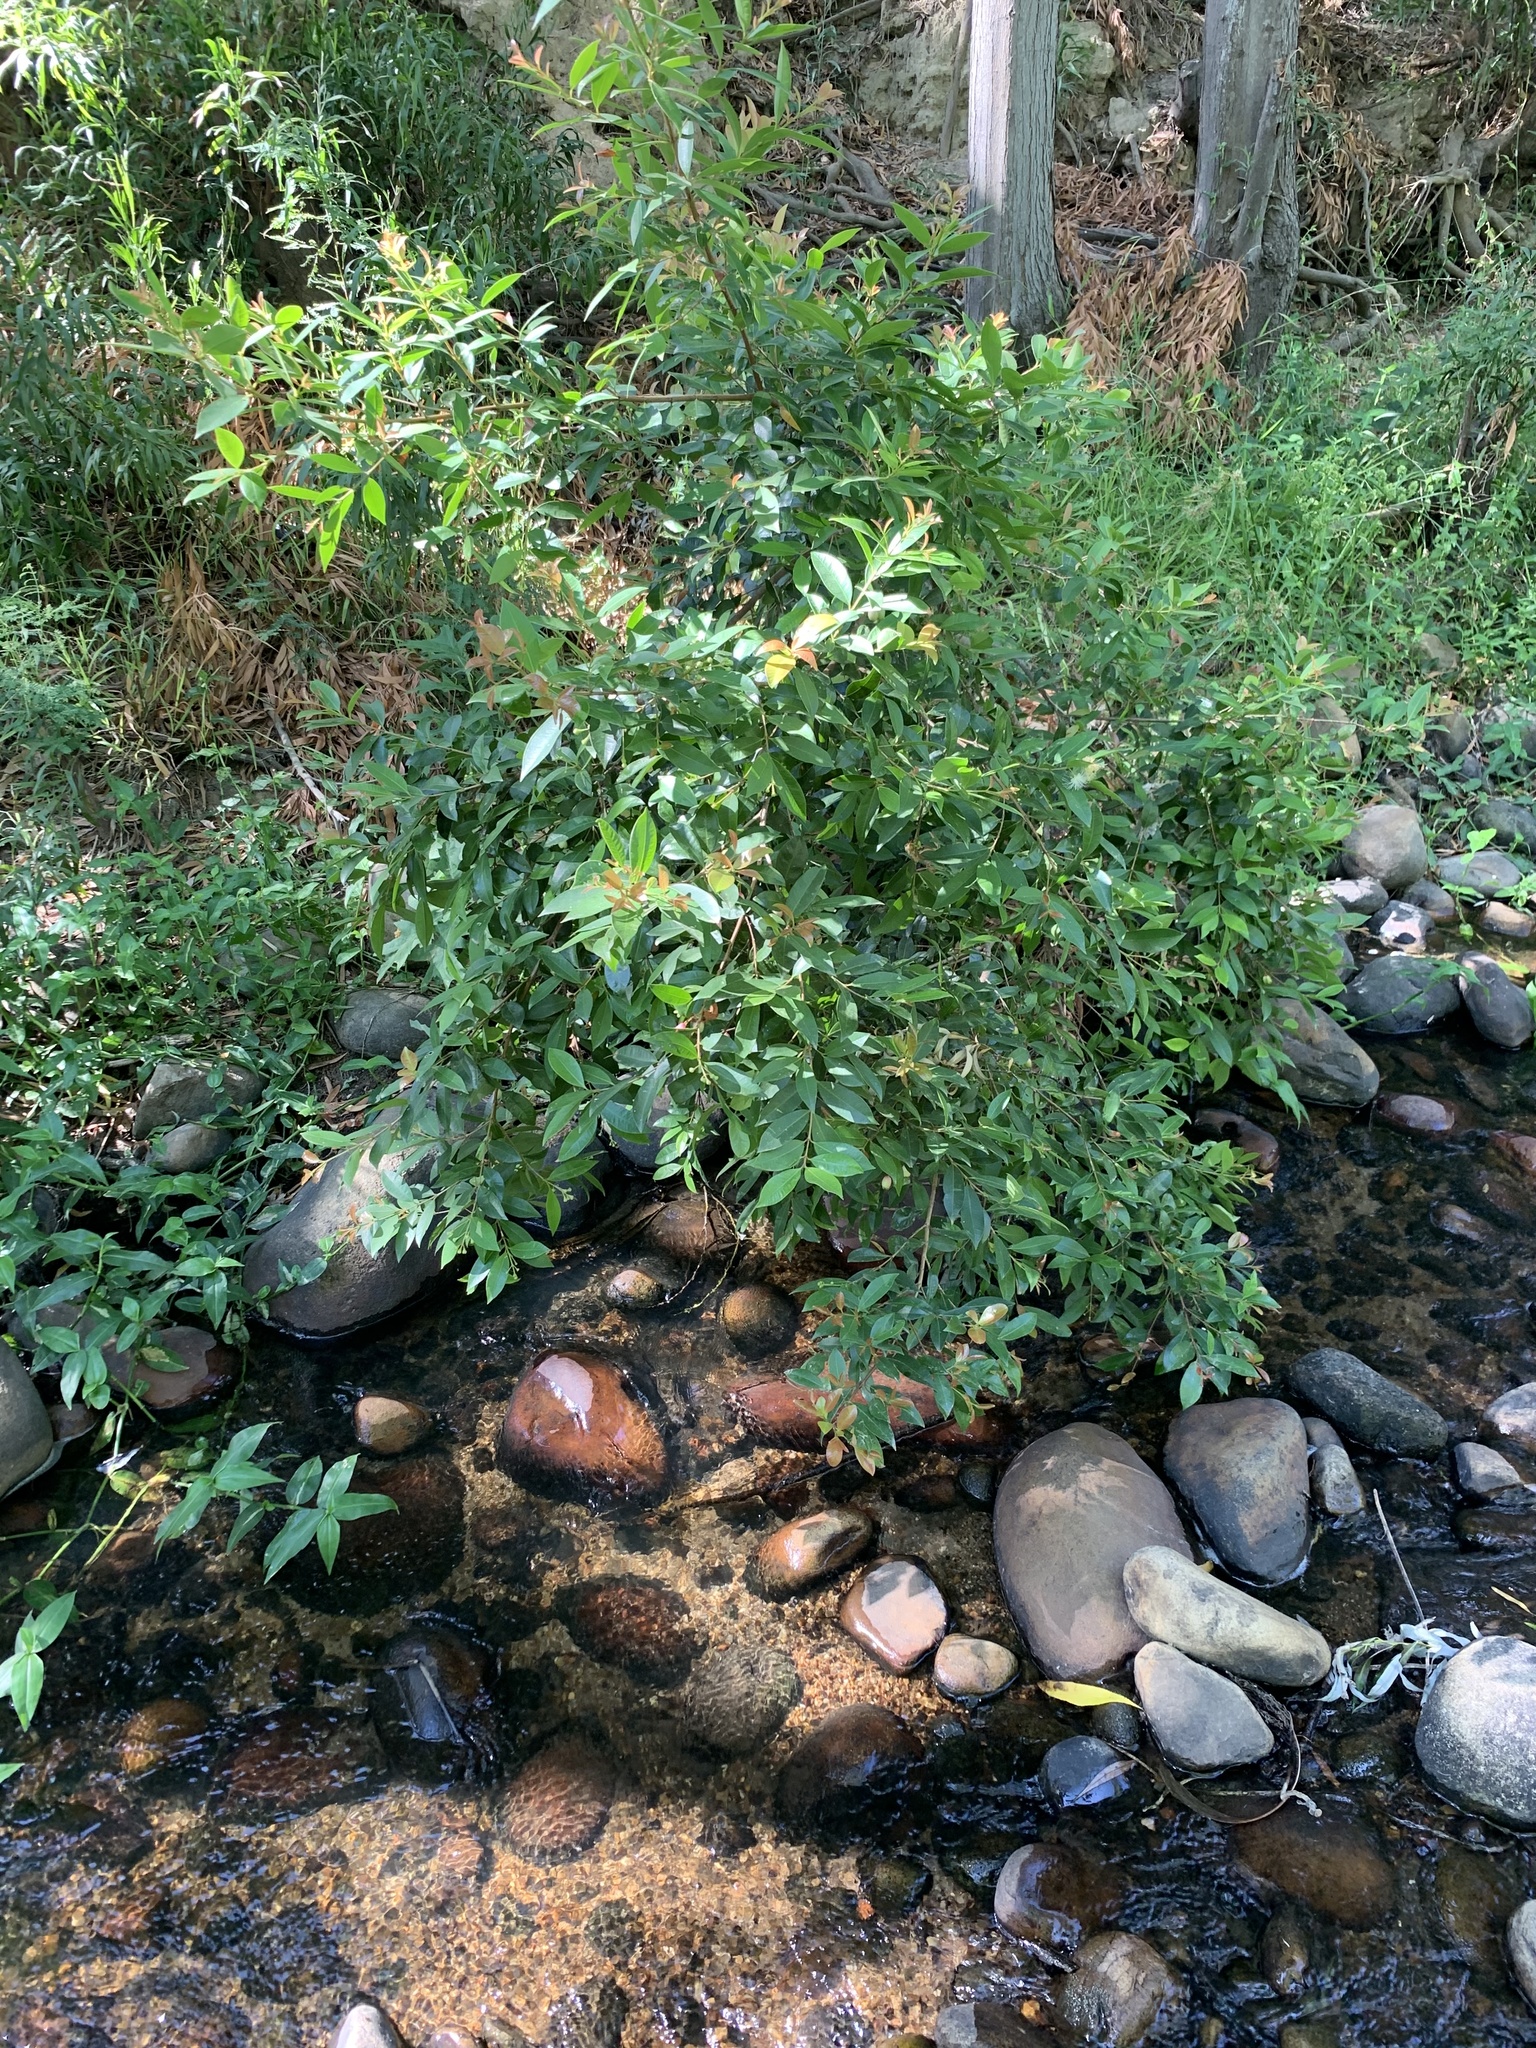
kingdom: Plantae
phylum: Tracheophyta
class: Magnoliopsida
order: Myrtales
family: Myrtaceae
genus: Syzygium
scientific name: Syzygium australe
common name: Australian brush-cherry
